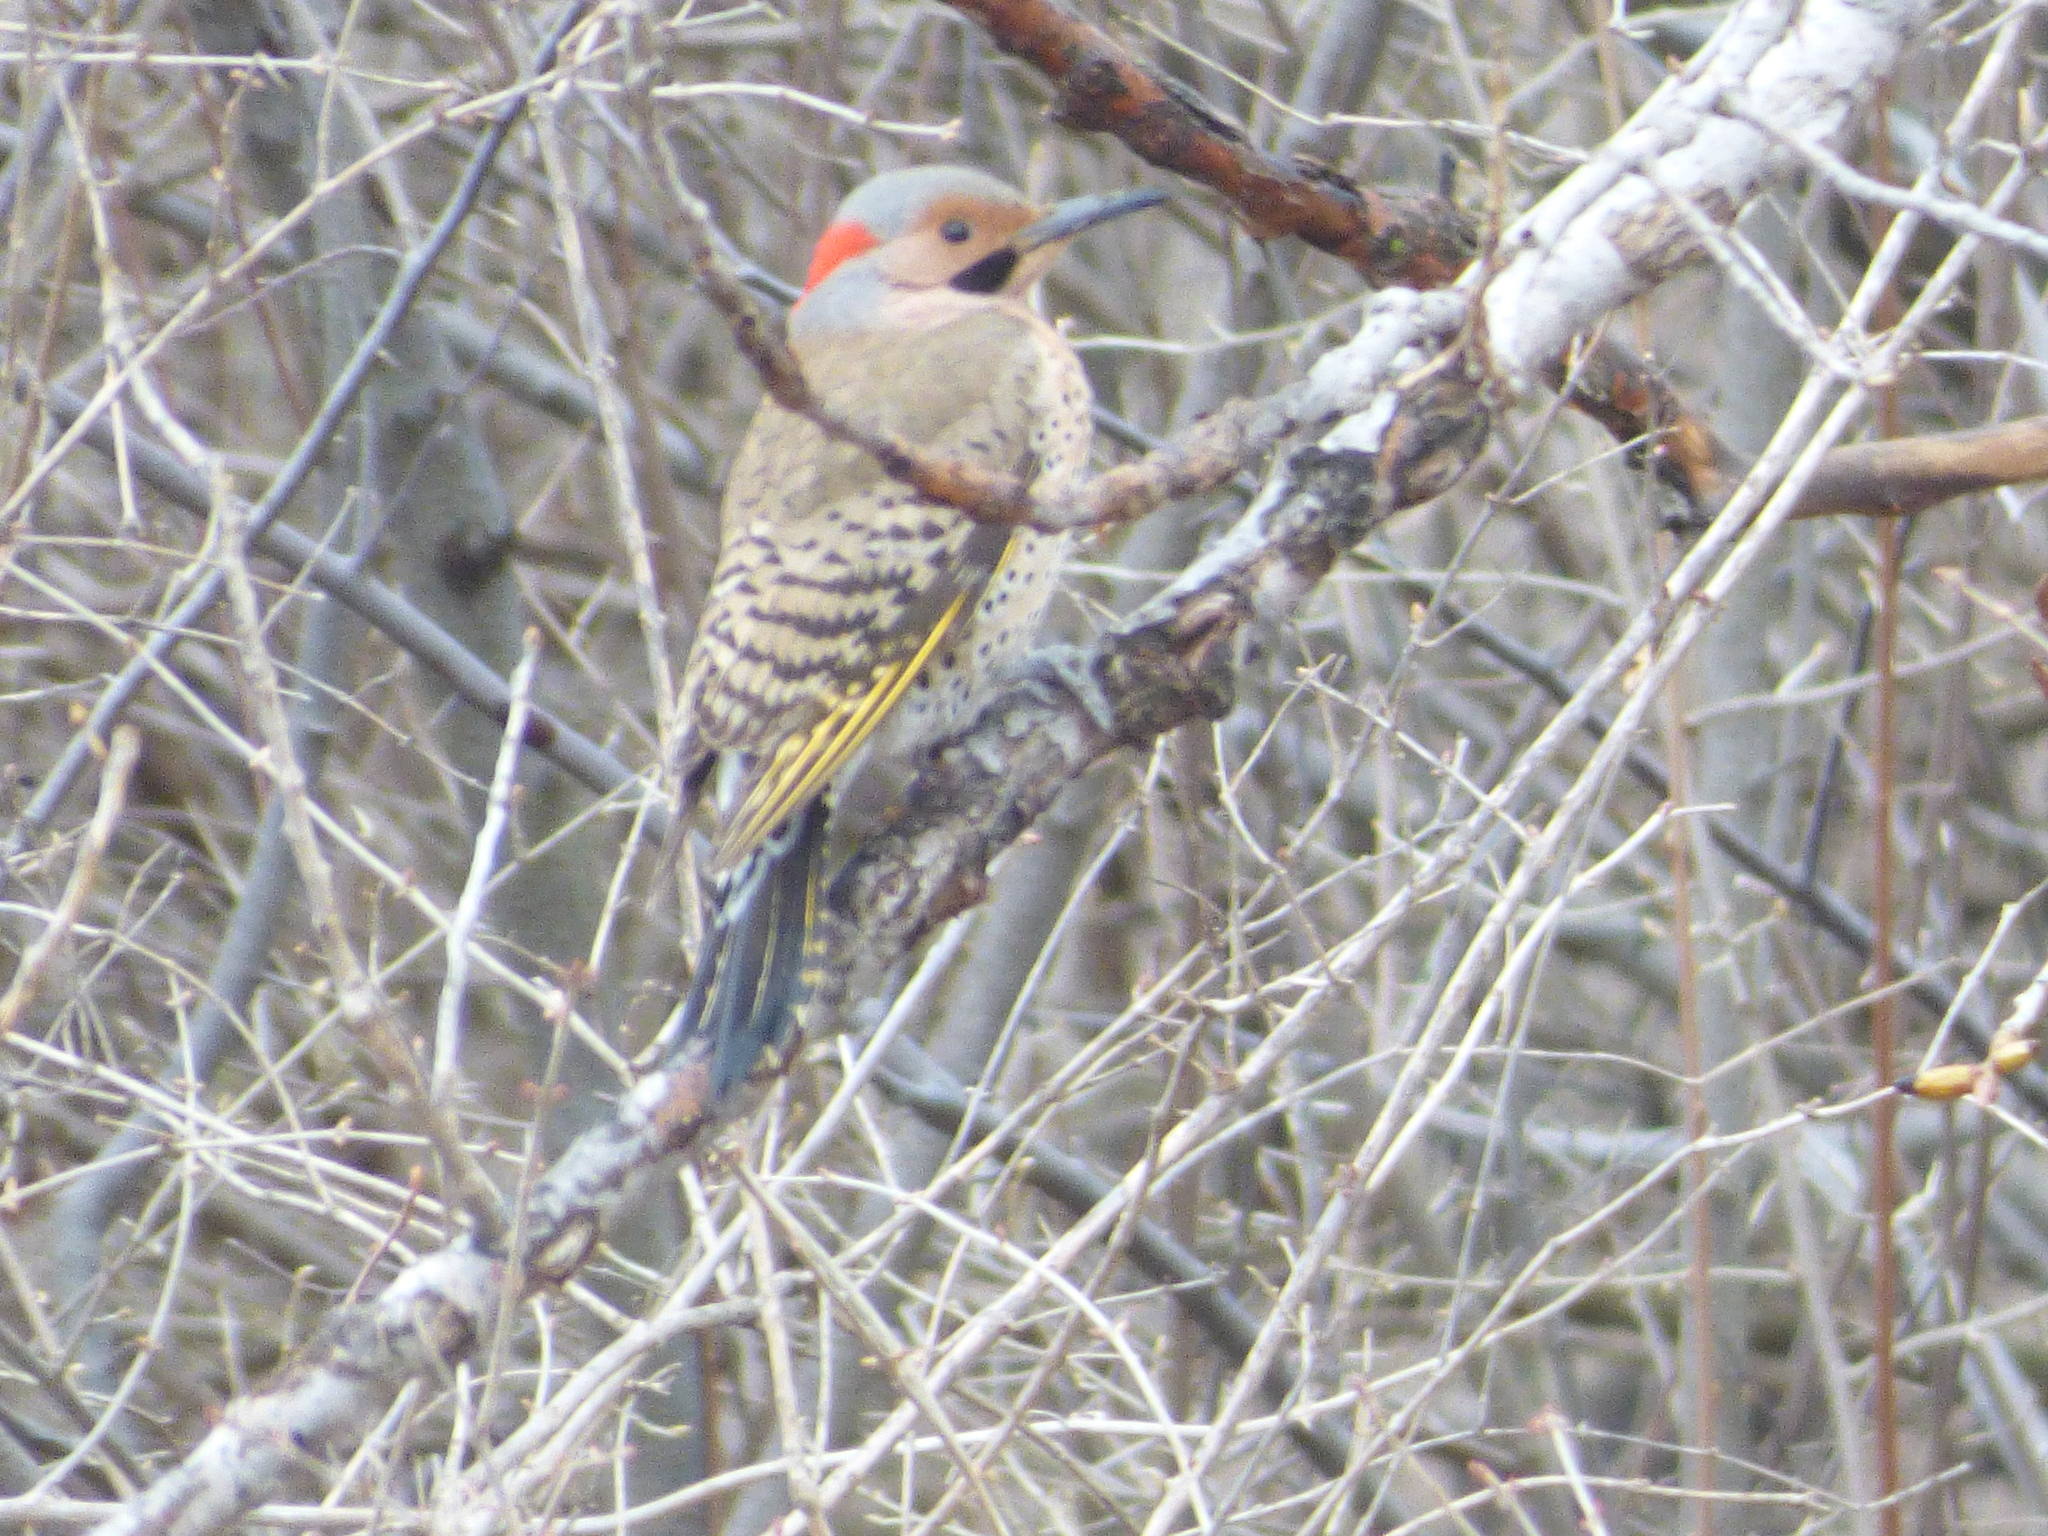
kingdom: Animalia
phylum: Chordata
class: Aves
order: Piciformes
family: Picidae
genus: Colaptes
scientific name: Colaptes auratus
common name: Northern flicker
